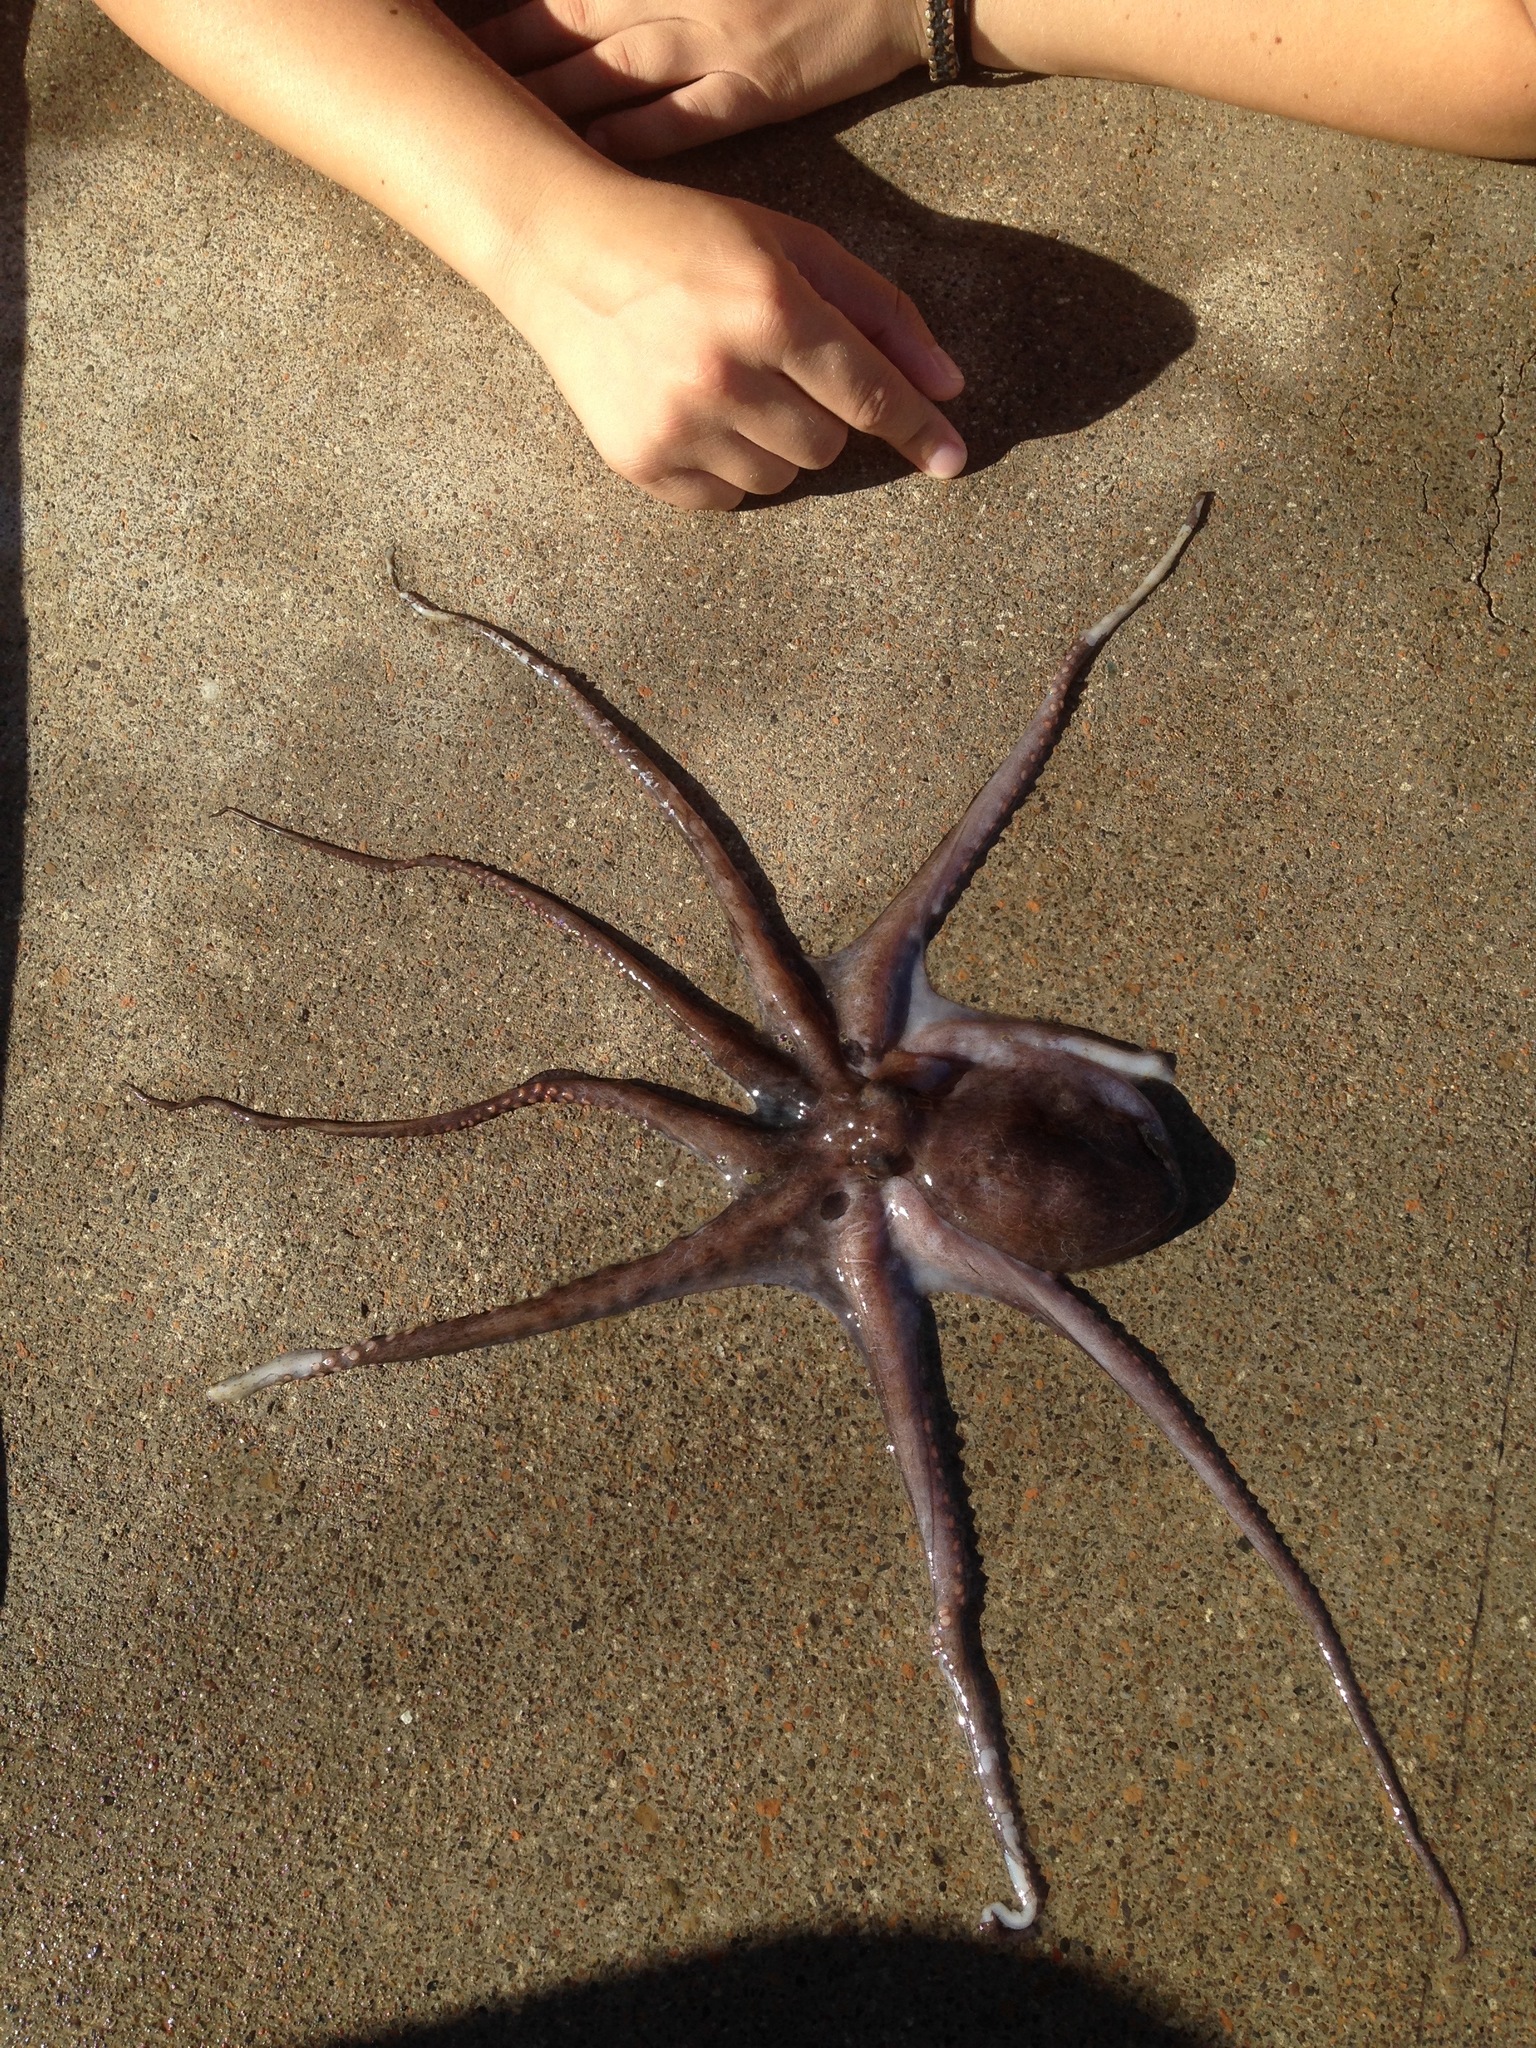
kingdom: Animalia
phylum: Mollusca
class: Cephalopoda
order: Octopoda
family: Octopodidae
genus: Octopus
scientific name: Octopus bimaculoides
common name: California two-spot octopus
